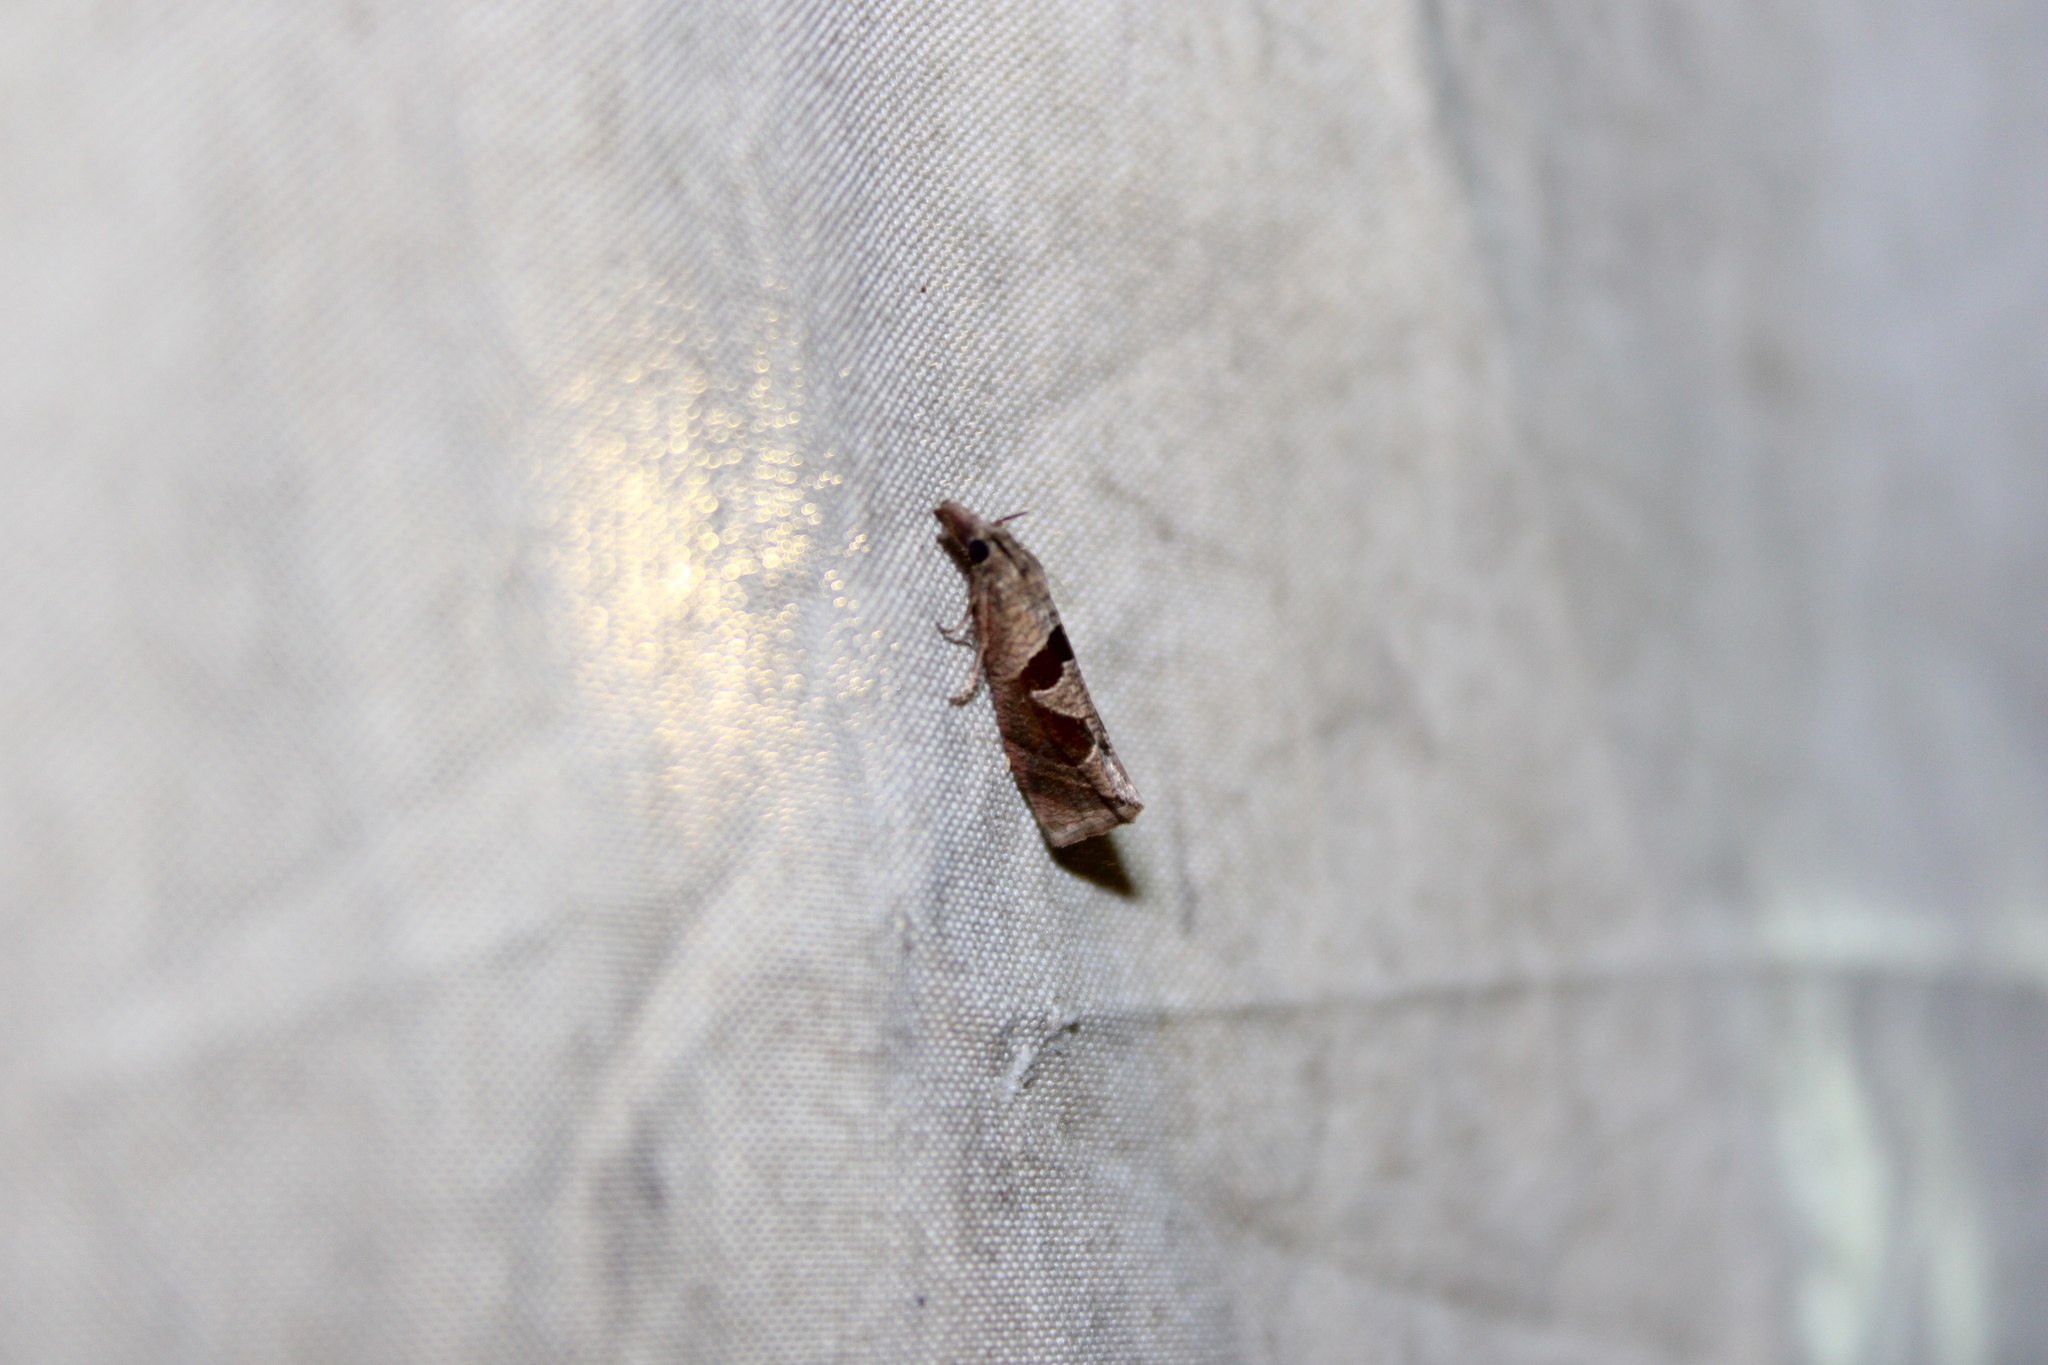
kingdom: Animalia
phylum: Arthropoda
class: Insecta
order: Lepidoptera
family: Tortricidae
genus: Pelochrista
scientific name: Pelochrista similiana
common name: Similar eucosma
